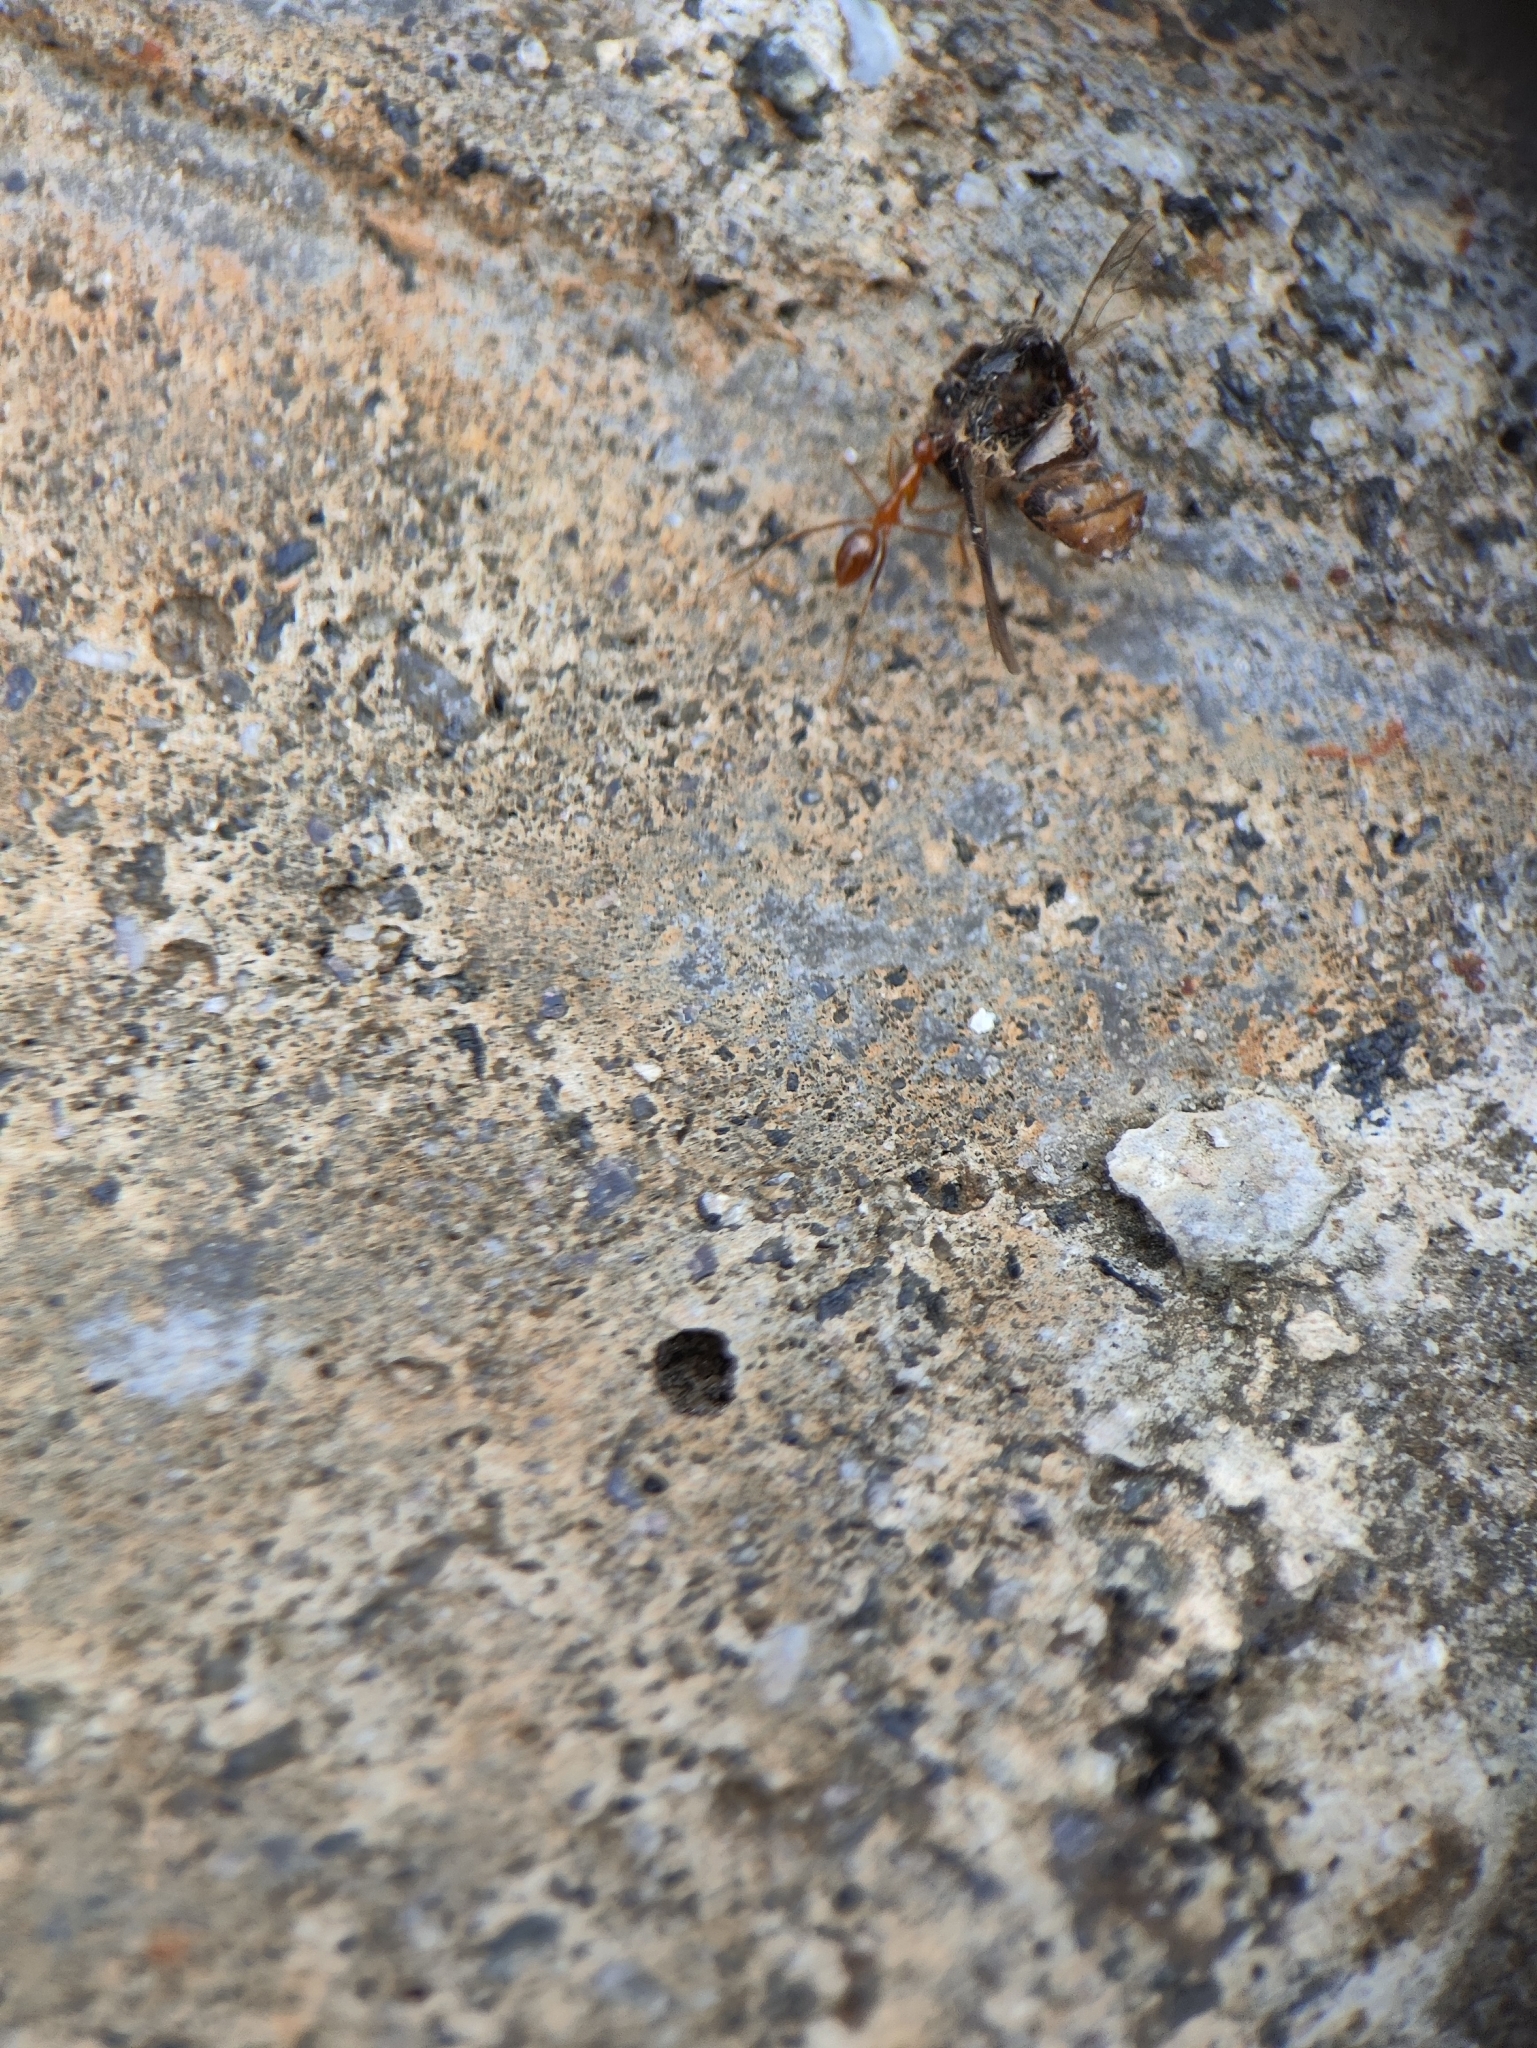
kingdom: Animalia
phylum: Arthropoda
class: Insecta
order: Hymenoptera
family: Formicidae
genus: Anoplolepis
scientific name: Anoplolepis gracilipes
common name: Ant
